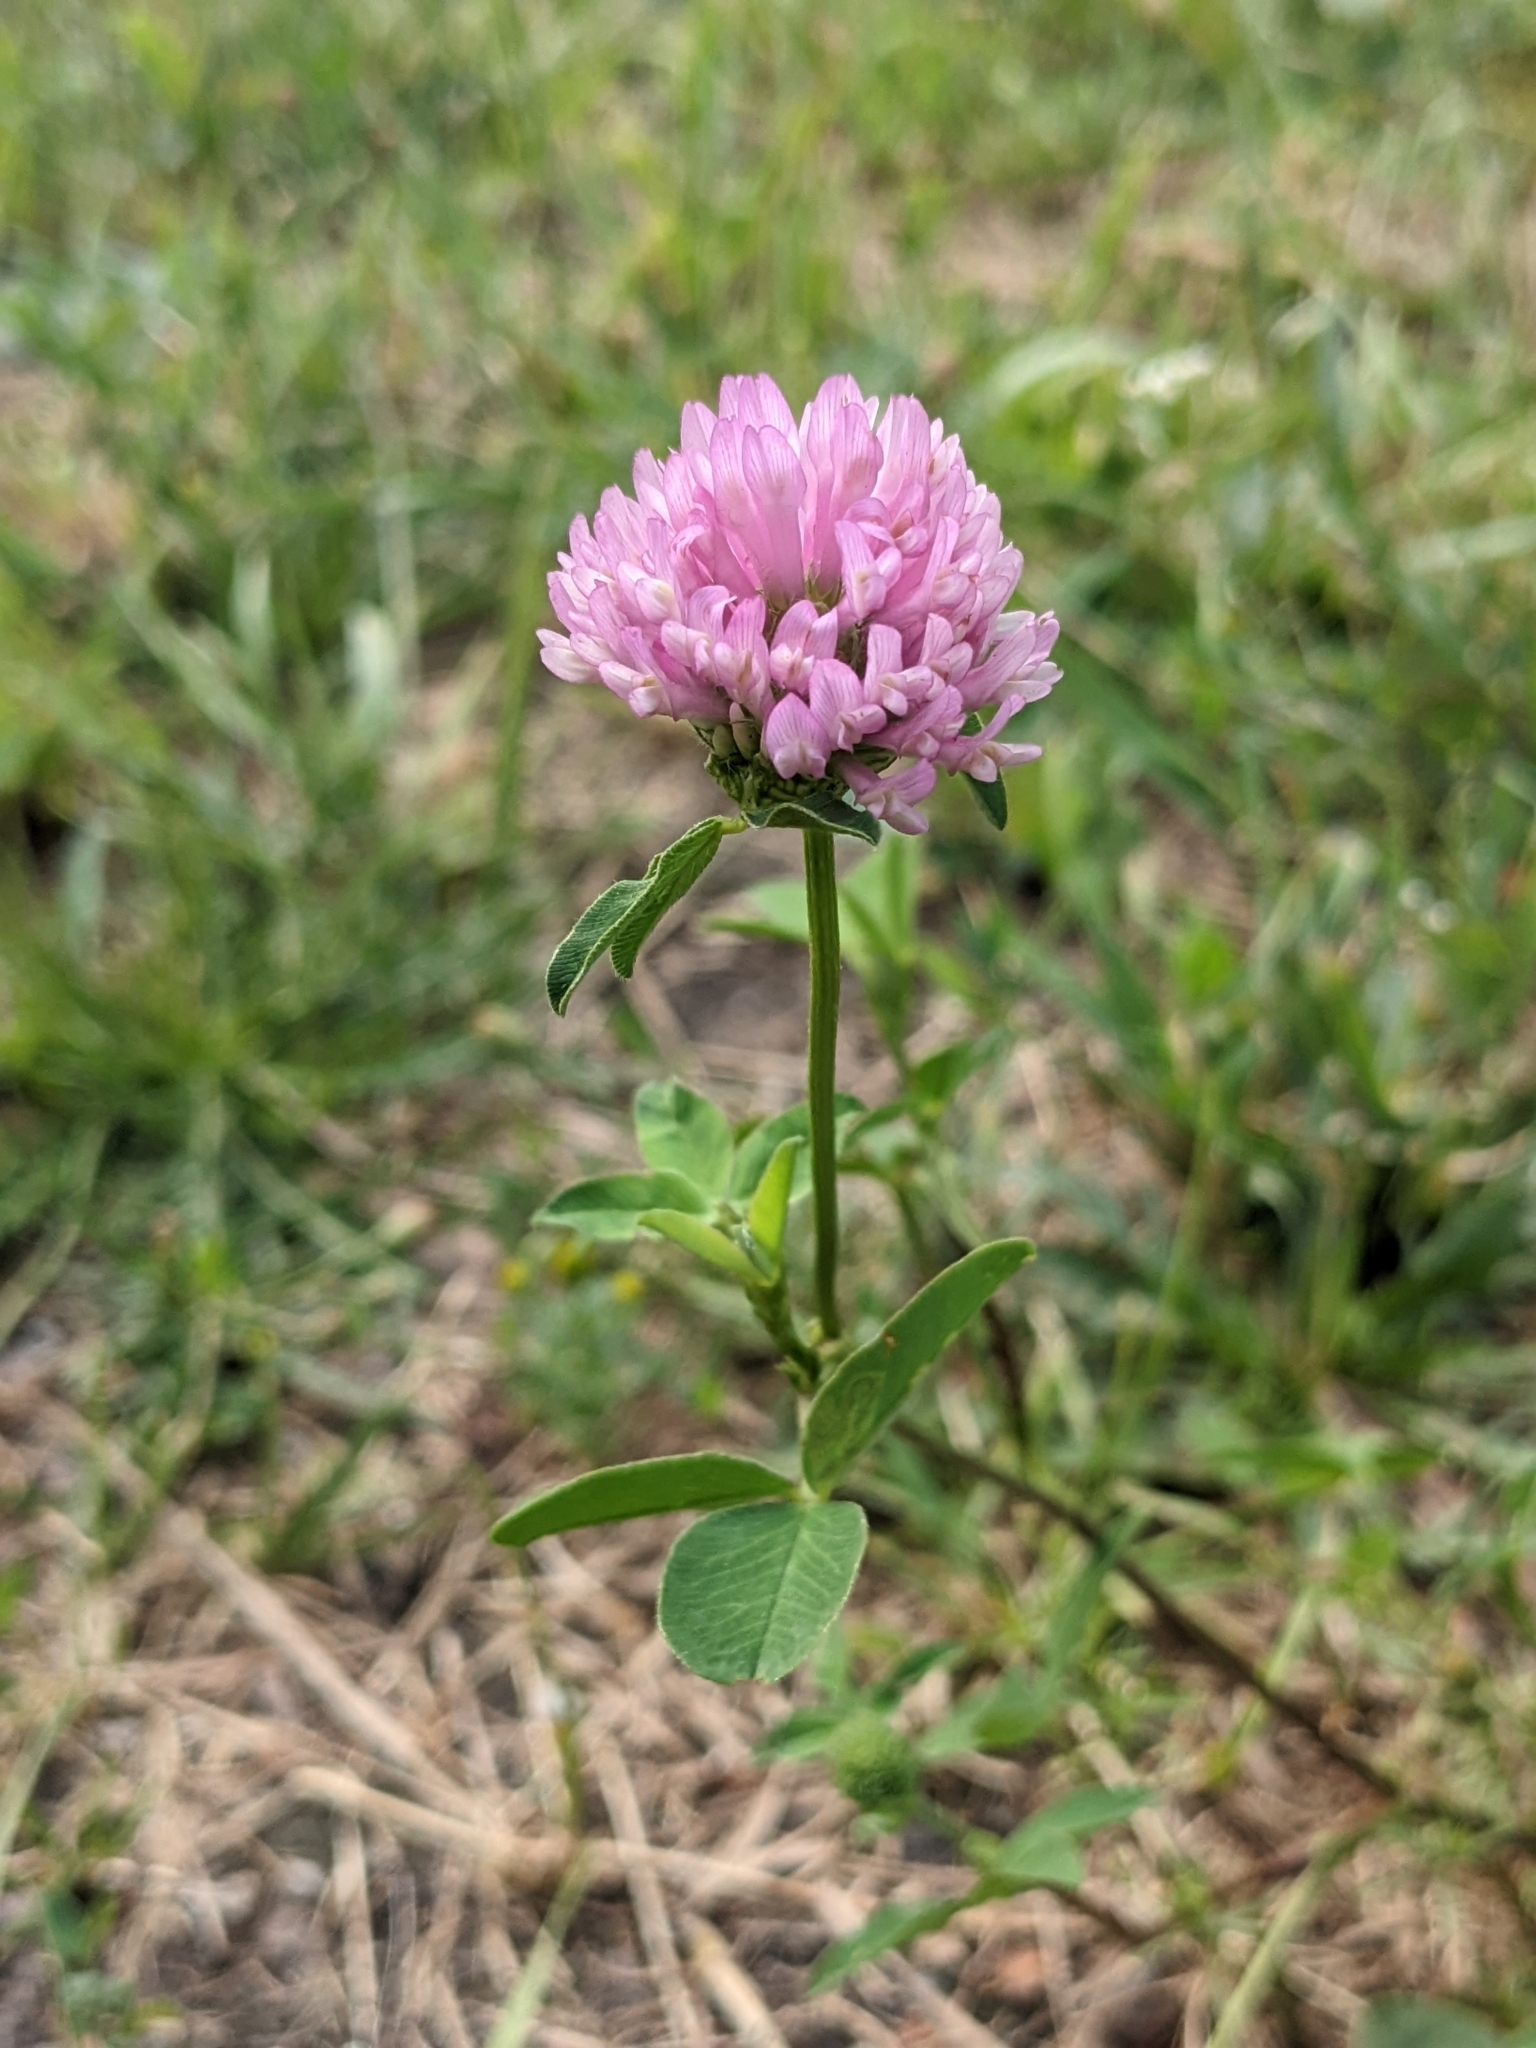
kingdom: Plantae
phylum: Tracheophyta
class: Magnoliopsida
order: Fabales
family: Fabaceae
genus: Trifolium
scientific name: Trifolium pratense
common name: Red clover
